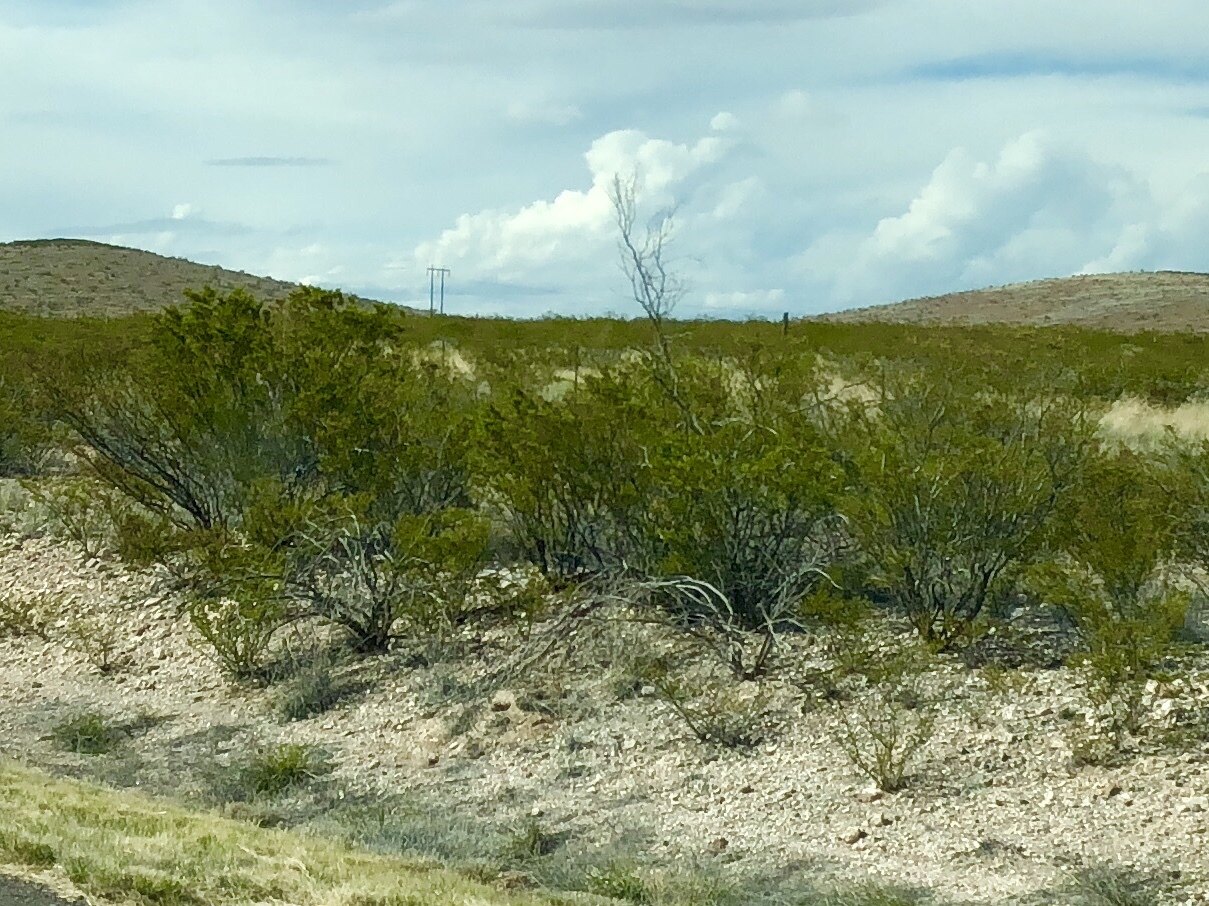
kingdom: Plantae
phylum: Tracheophyta
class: Magnoliopsida
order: Zygophyllales
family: Zygophyllaceae
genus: Larrea
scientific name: Larrea tridentata
